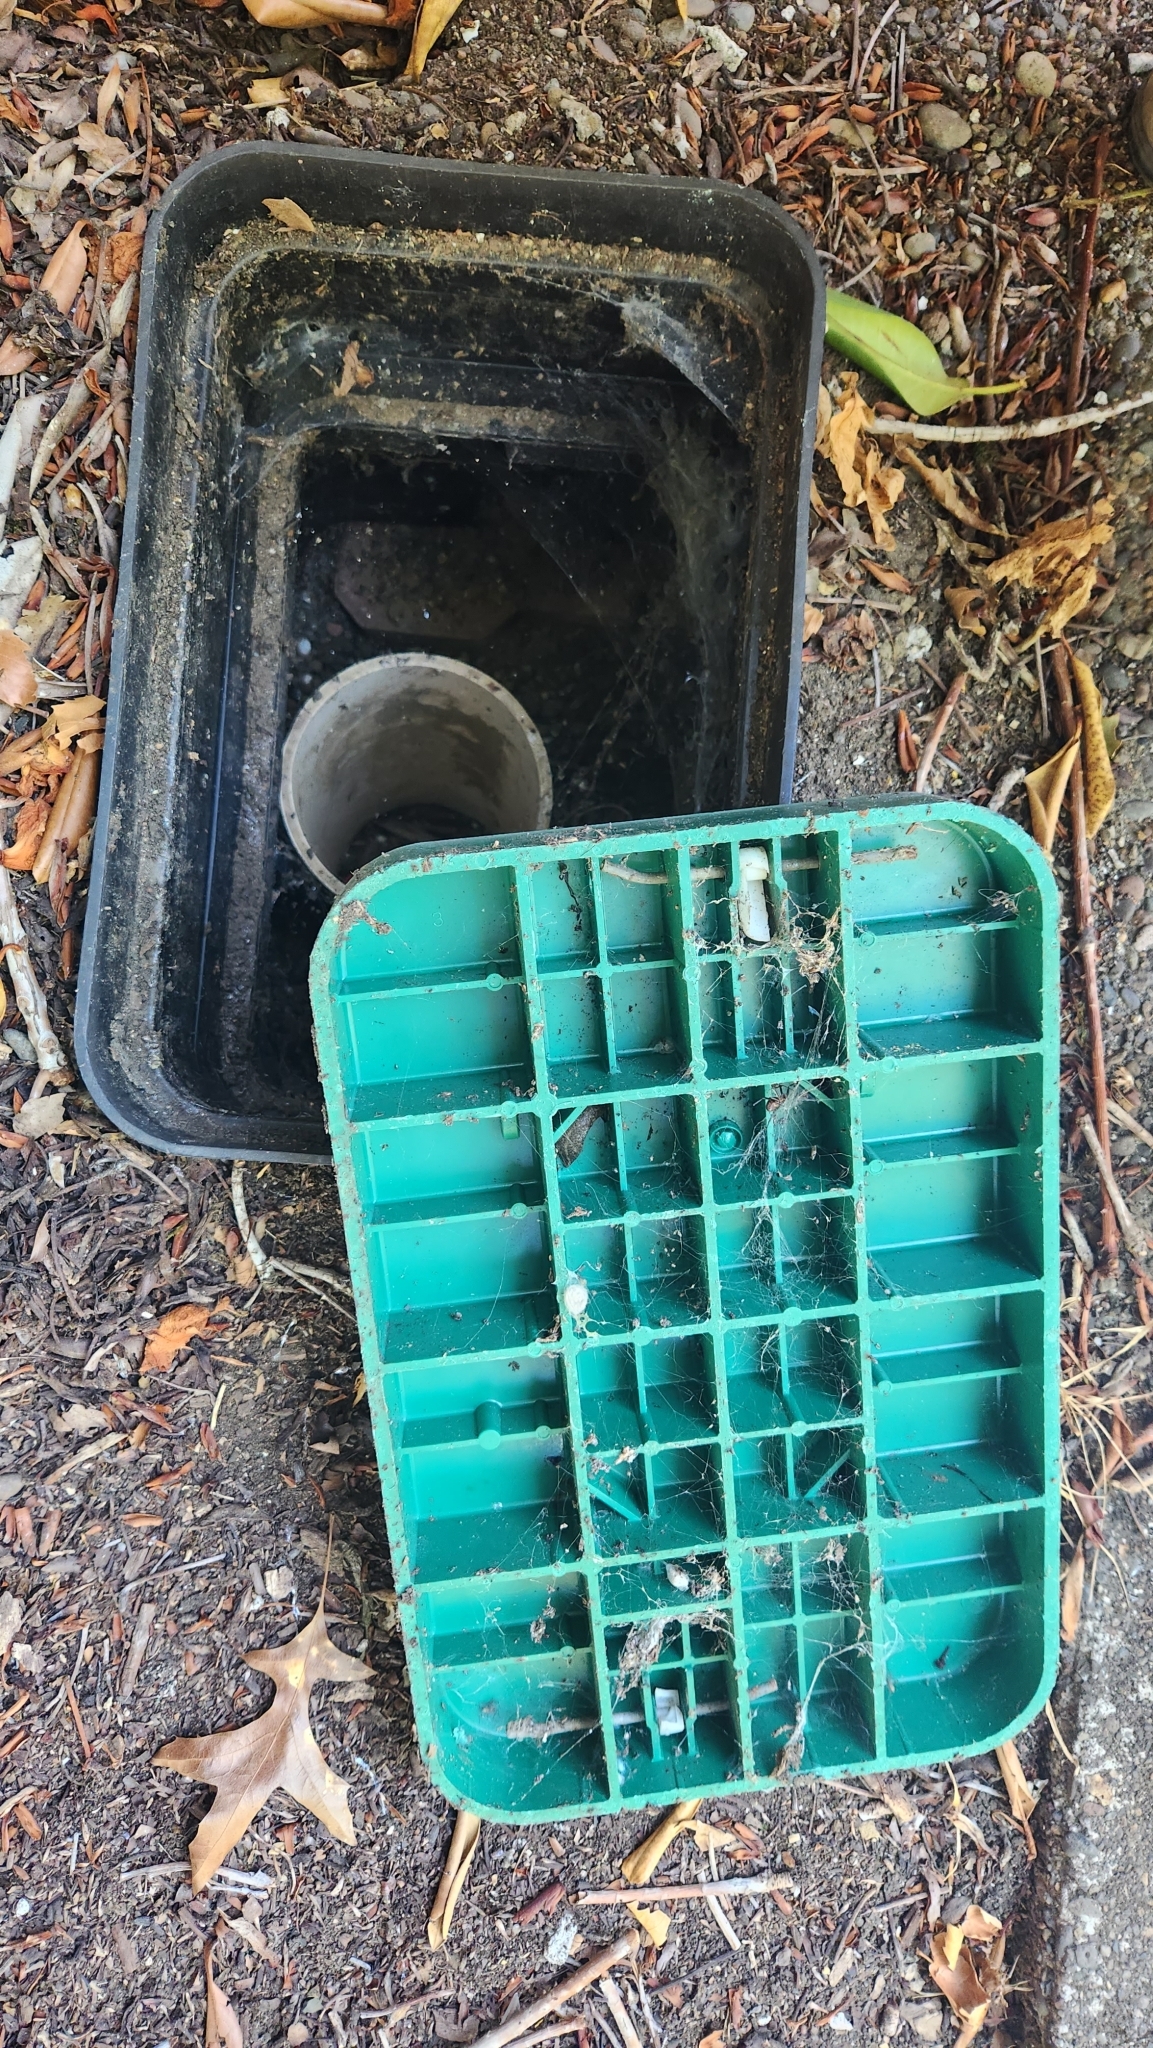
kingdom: Animalia
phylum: Mollusca
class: Gastropoda
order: Stylommatophora
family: Limacidae
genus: Limacus
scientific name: Limacus flavus
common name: Yellow gardenslug
